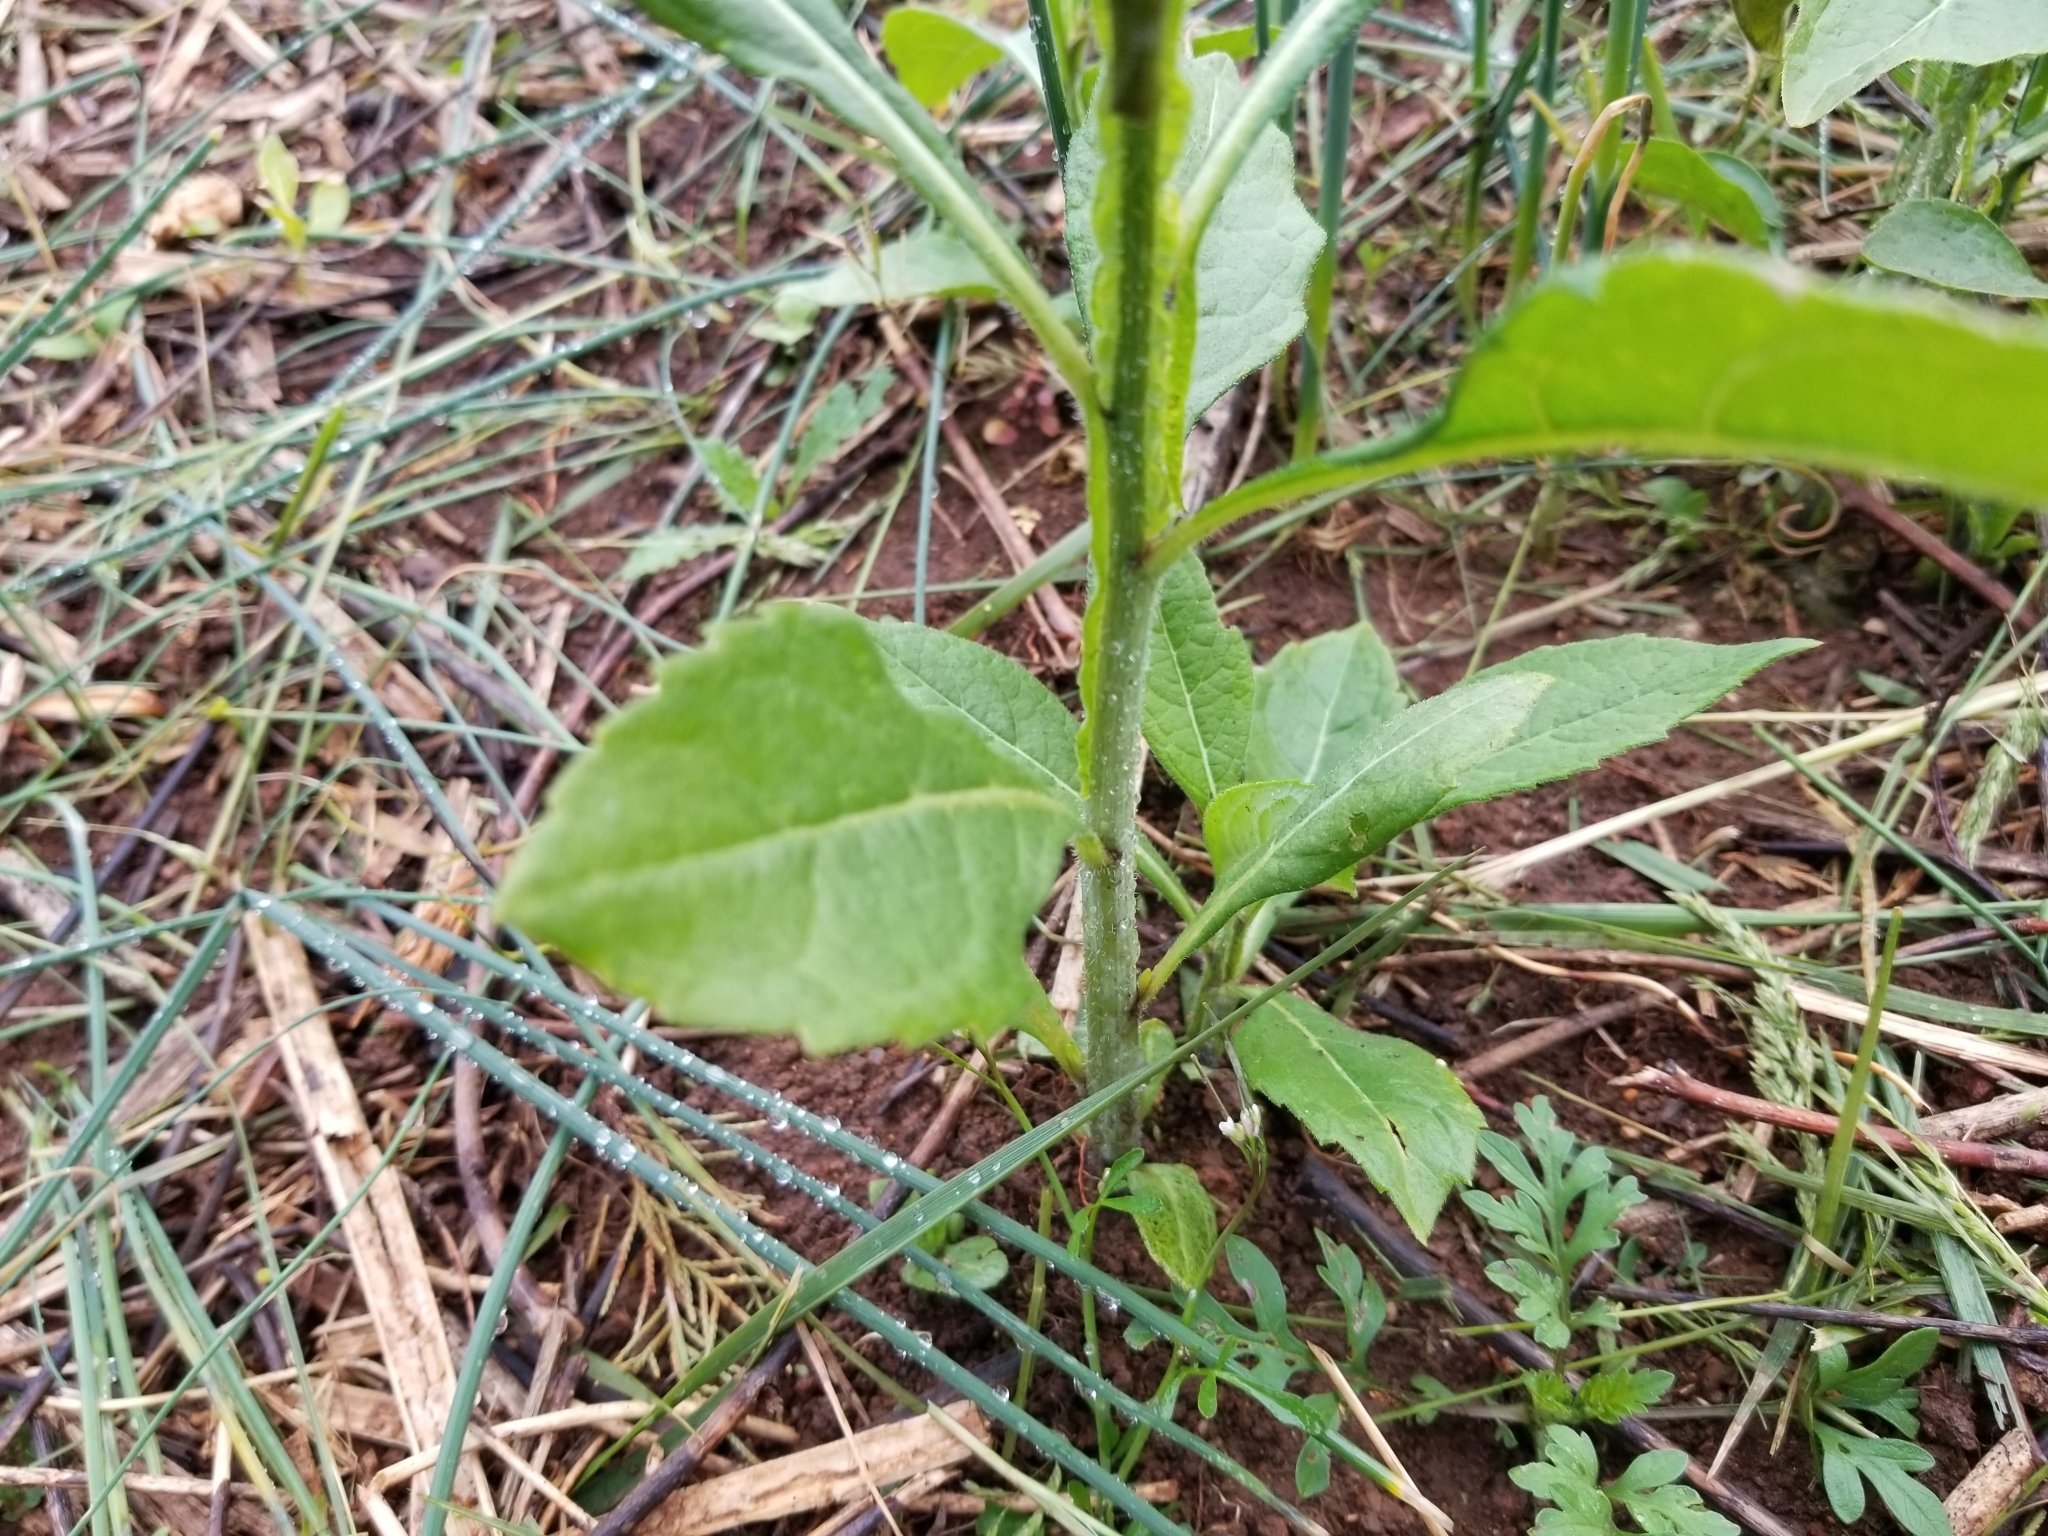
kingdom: Plantae
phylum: Tracheophyta
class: Magnoliopsida
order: Asterales
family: Asteraceae
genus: Verbesina
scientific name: Verbesina alternifolia
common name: Wingstem
